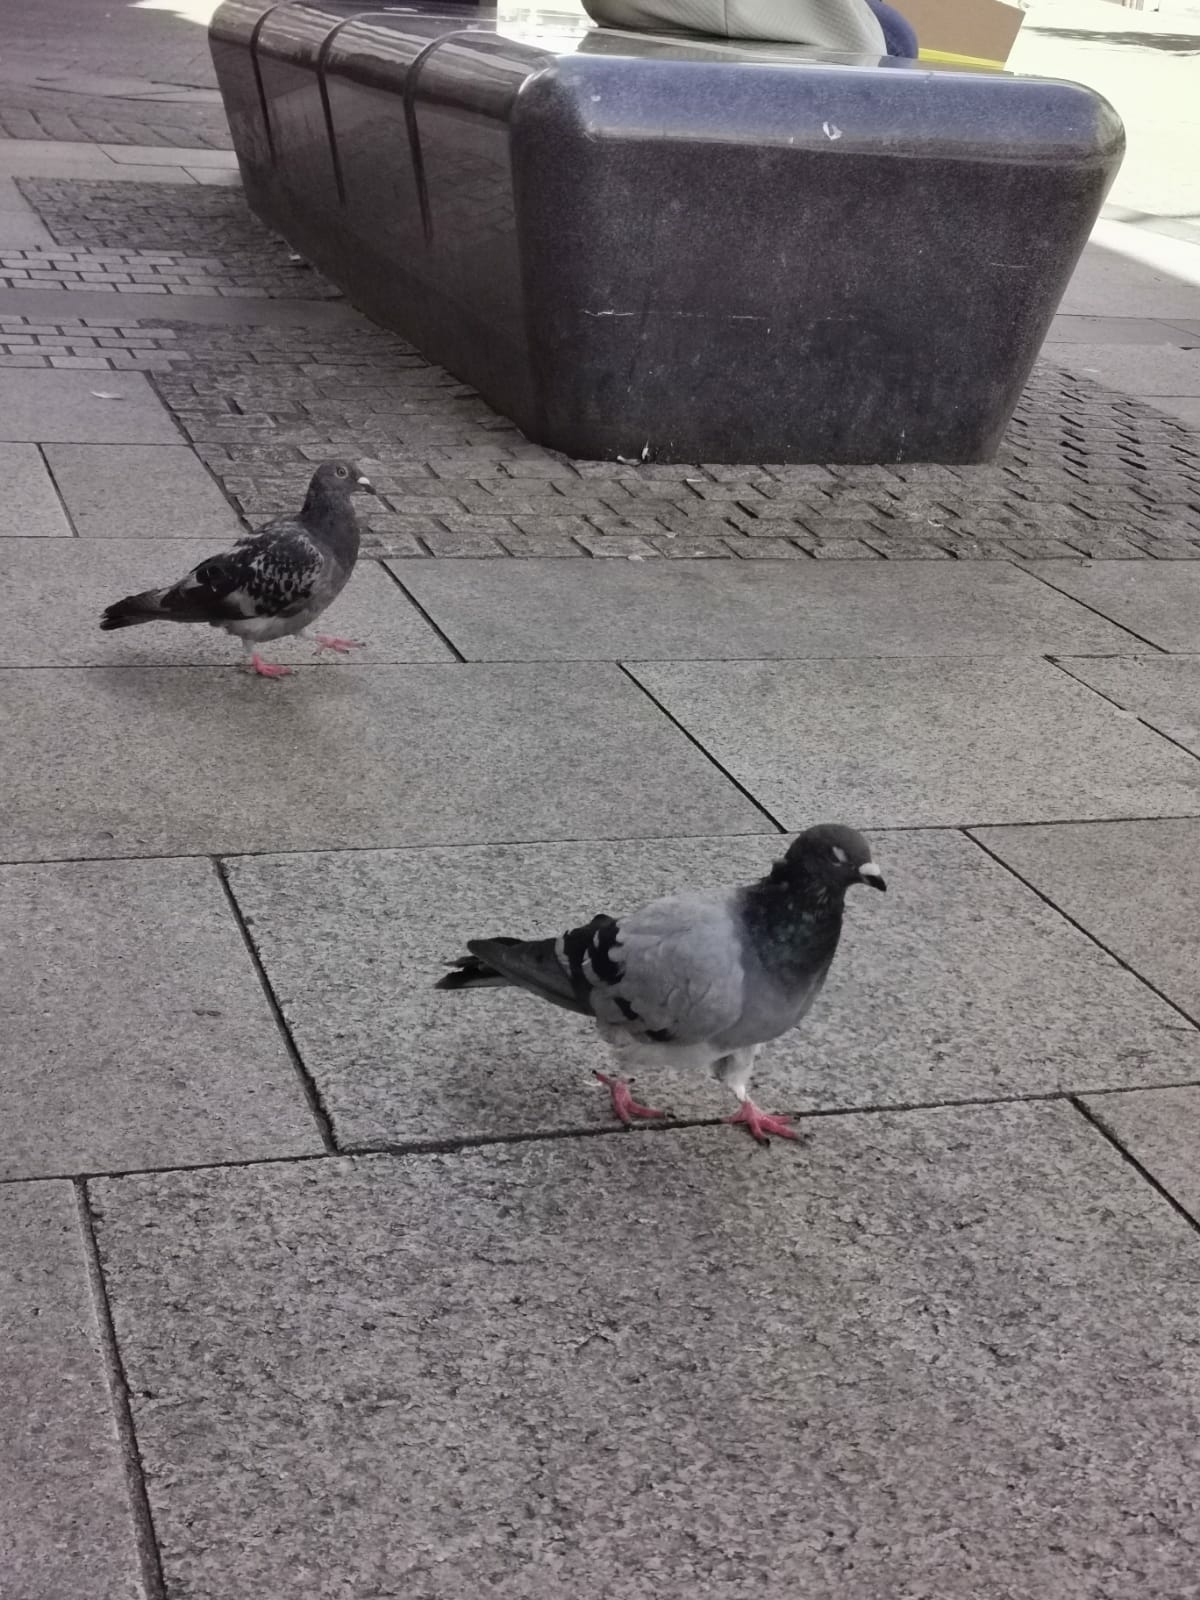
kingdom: Animalia
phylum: Chordata
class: Aves
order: Columbiformes
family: Columbidae
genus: Columba
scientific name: Columba livia
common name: Rock pigeon
